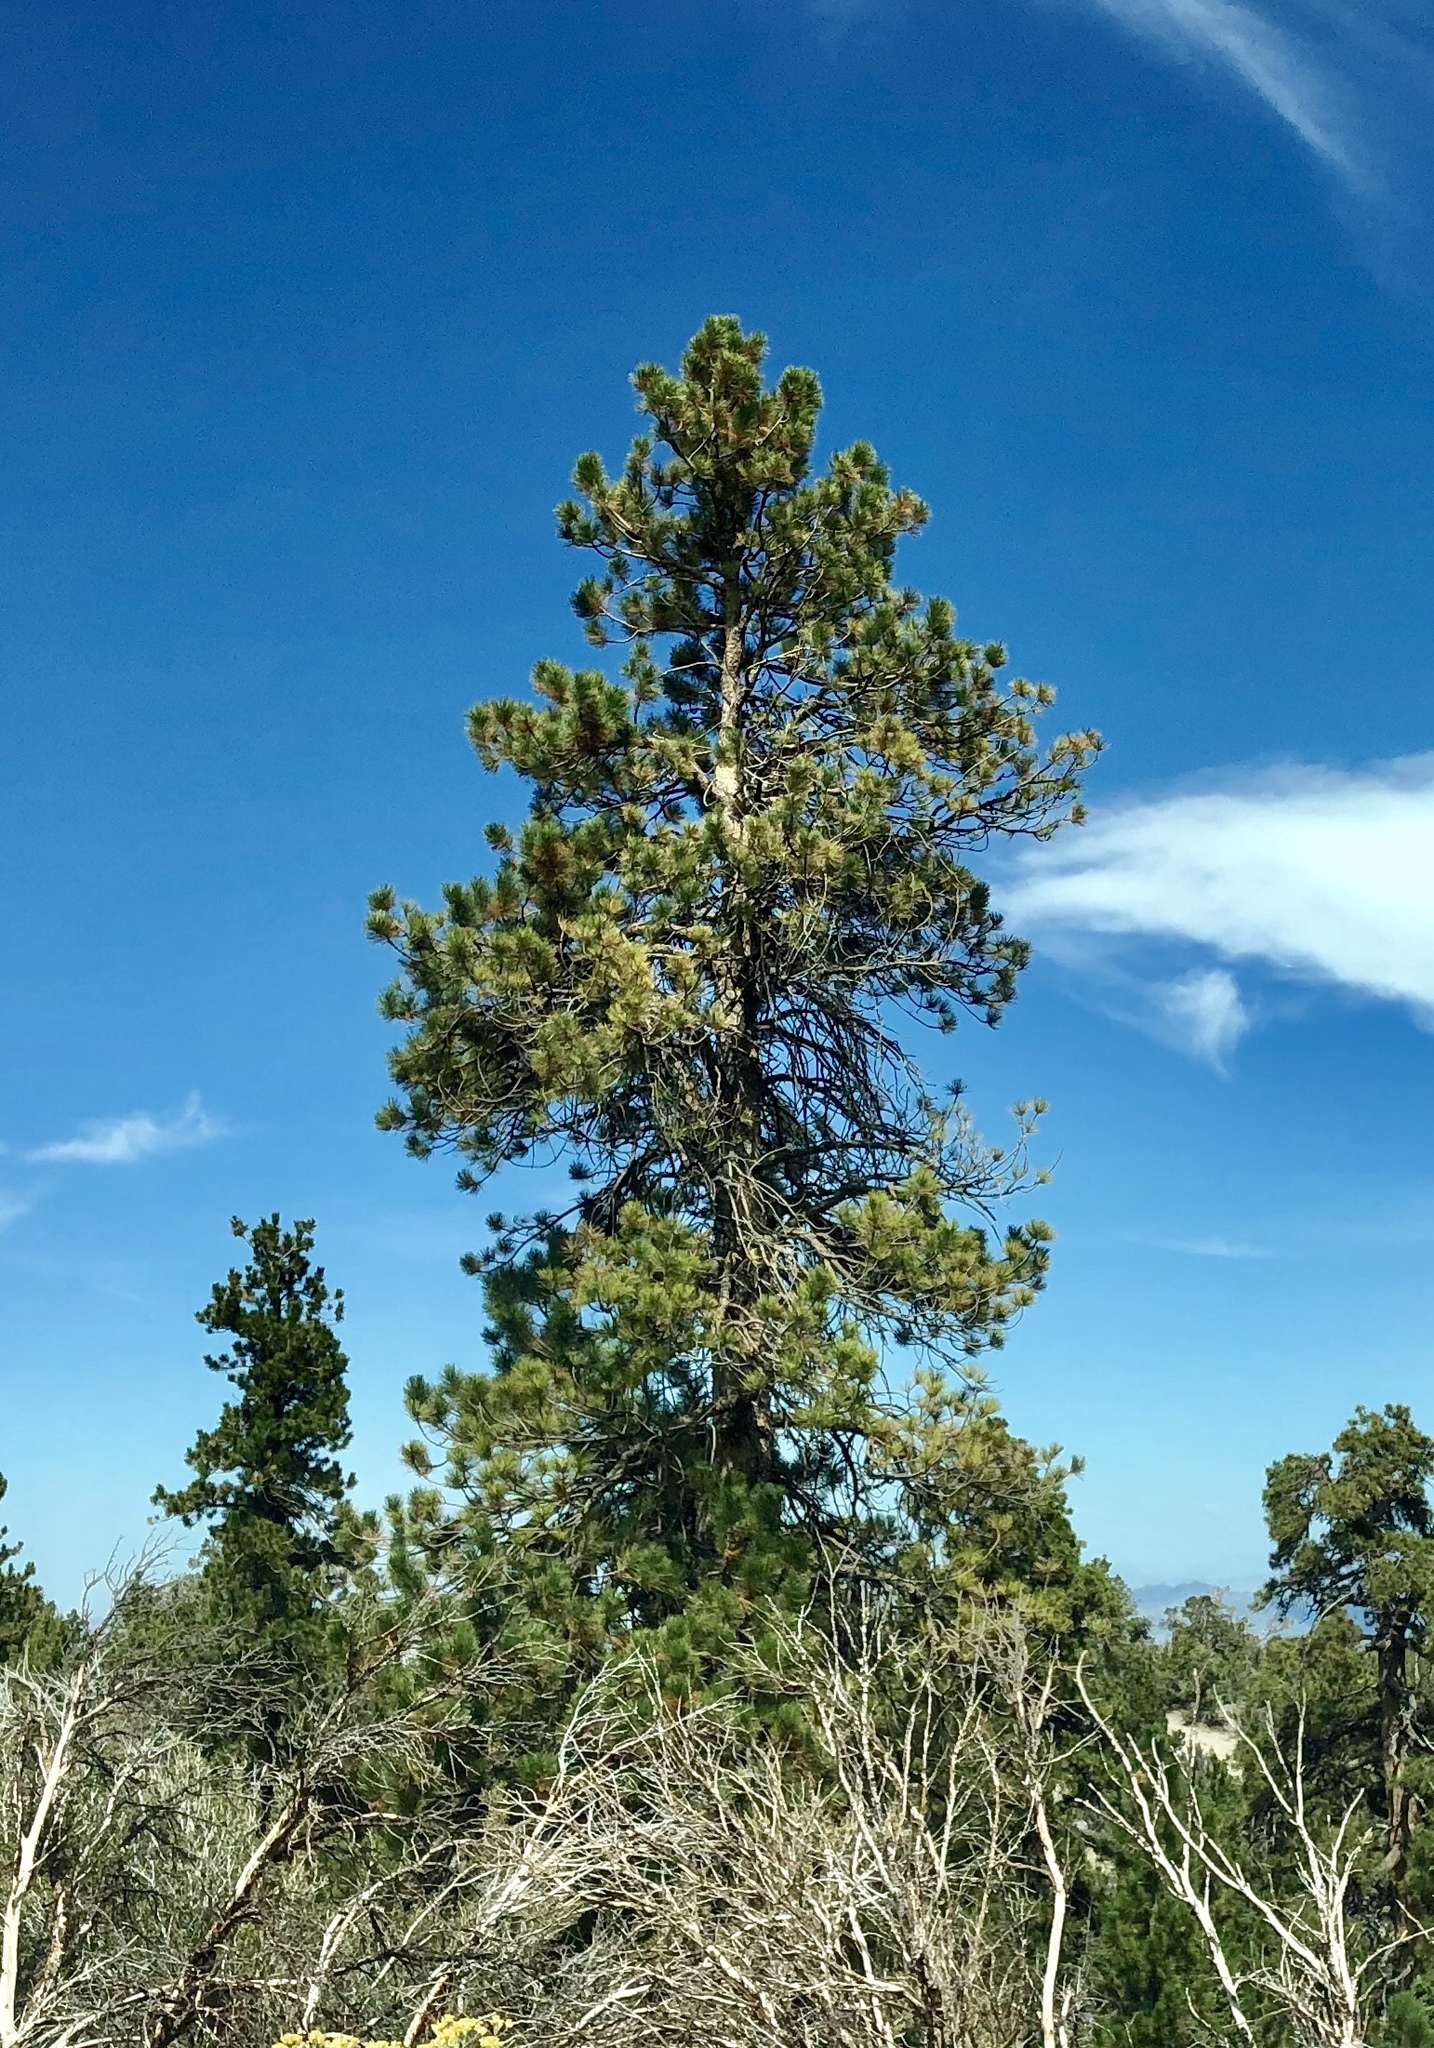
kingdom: Plantae
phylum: Tracheophyta
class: Pinopsida
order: Pinales
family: Pinaceae
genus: Pinus
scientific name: Pinus ponderosa
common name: Western yellow-pine
